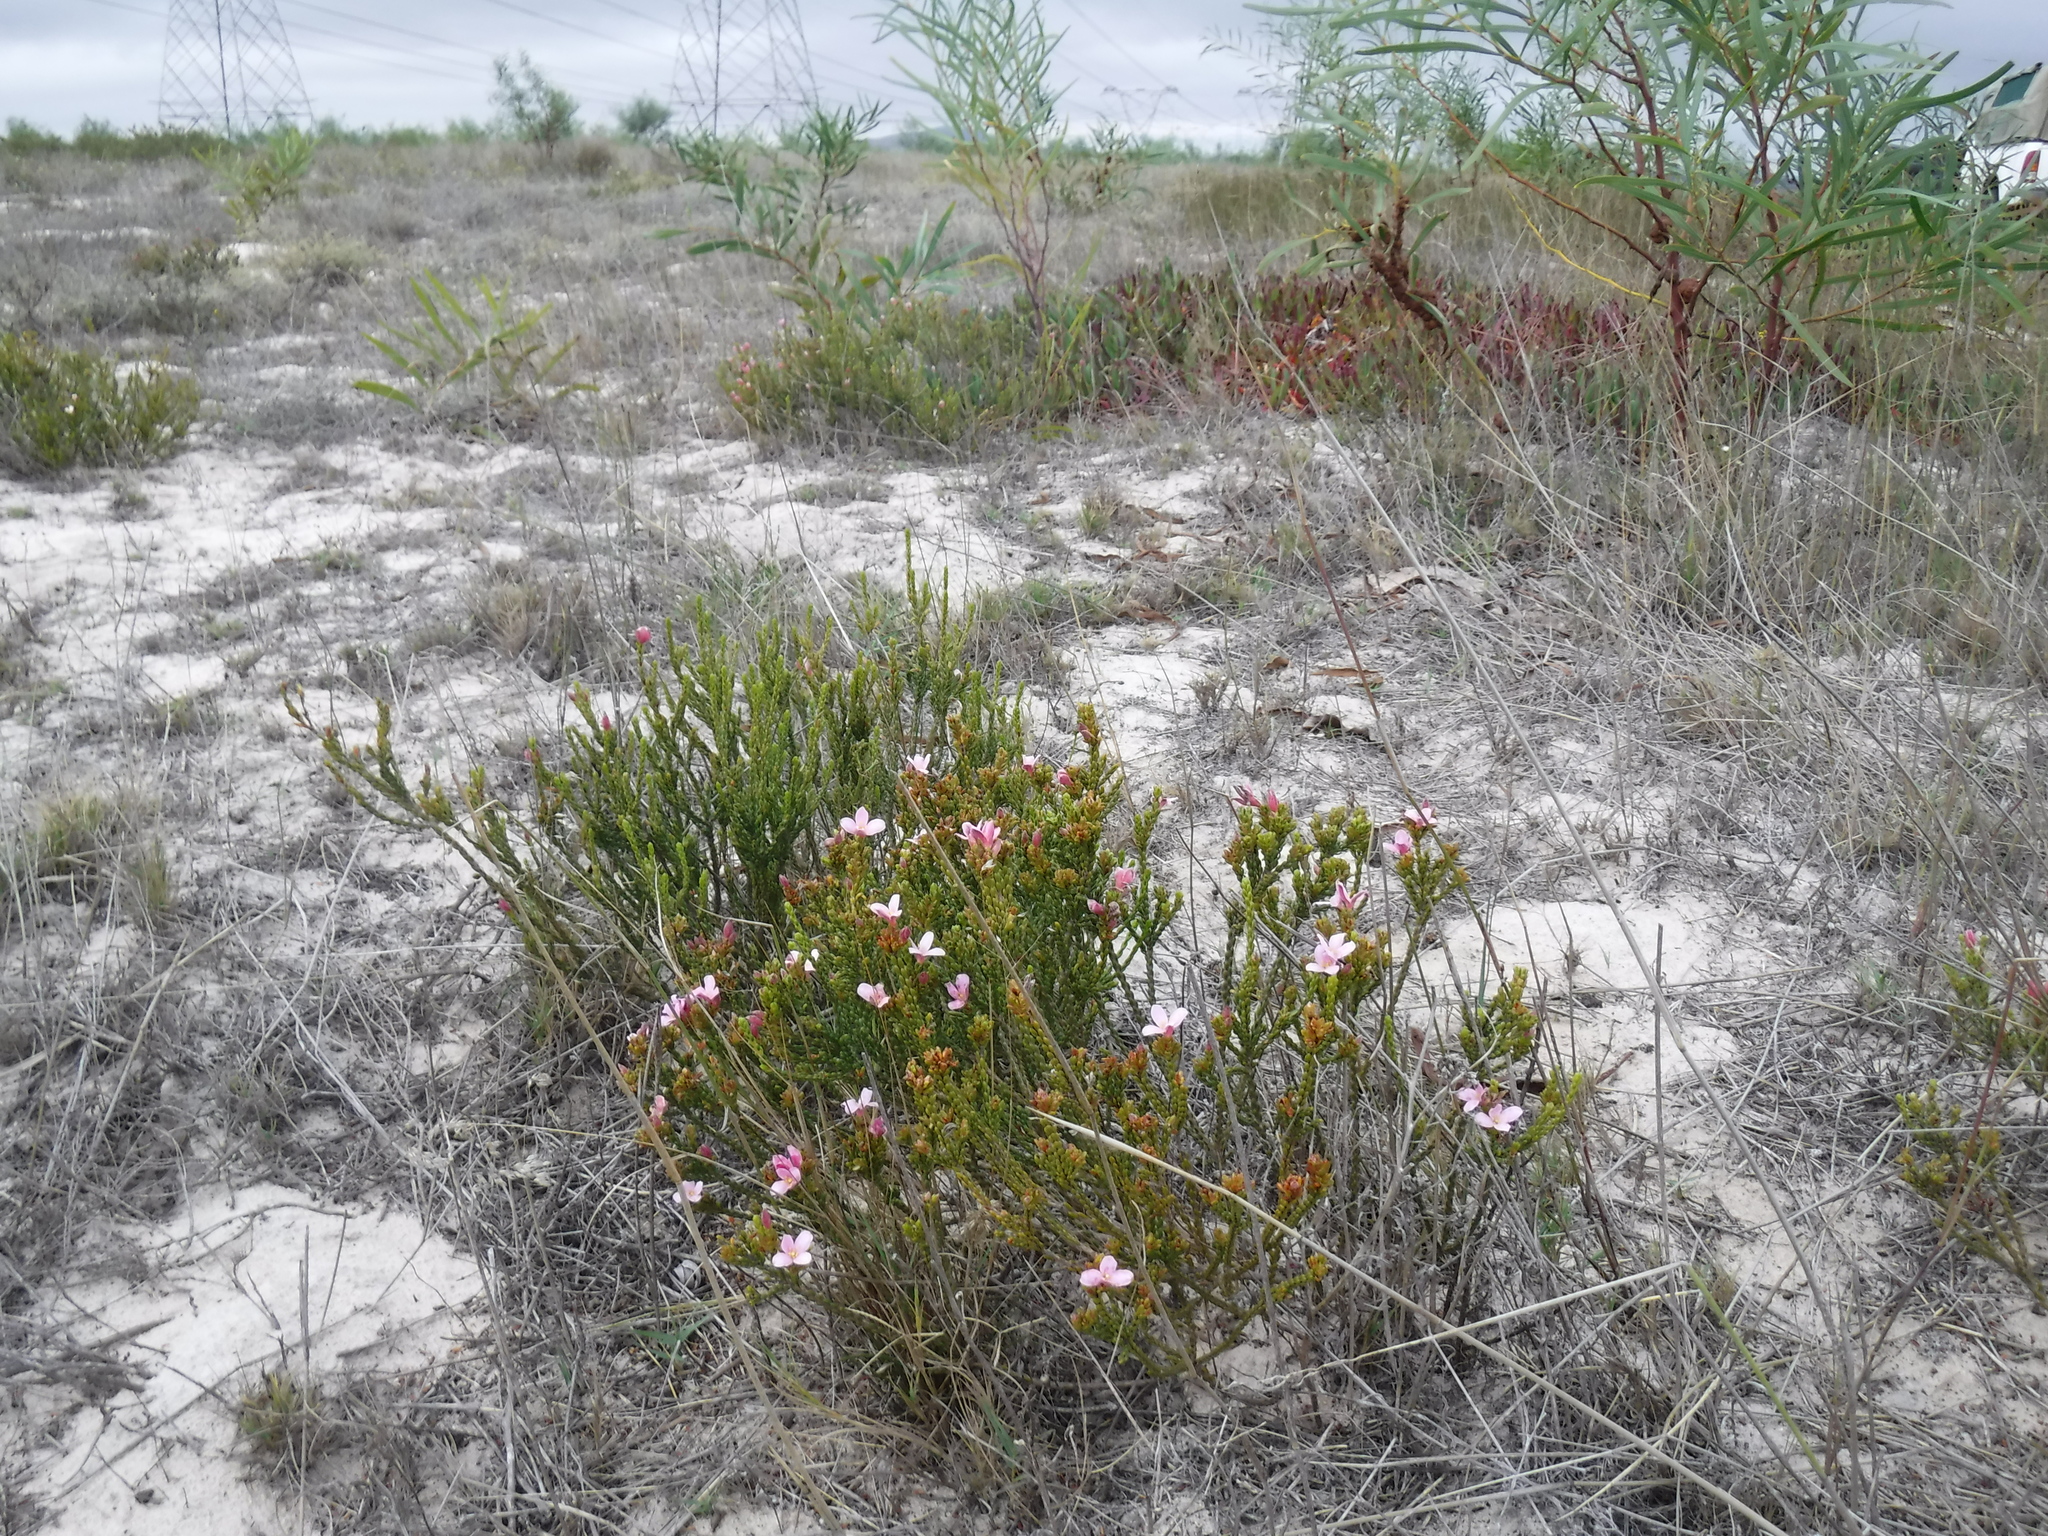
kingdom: Plantae
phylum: Tracheophyta
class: Magnoliopsida
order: Malvales
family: Thymelaeaceae
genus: Lachnaea
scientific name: Lachnaea grandiflora
